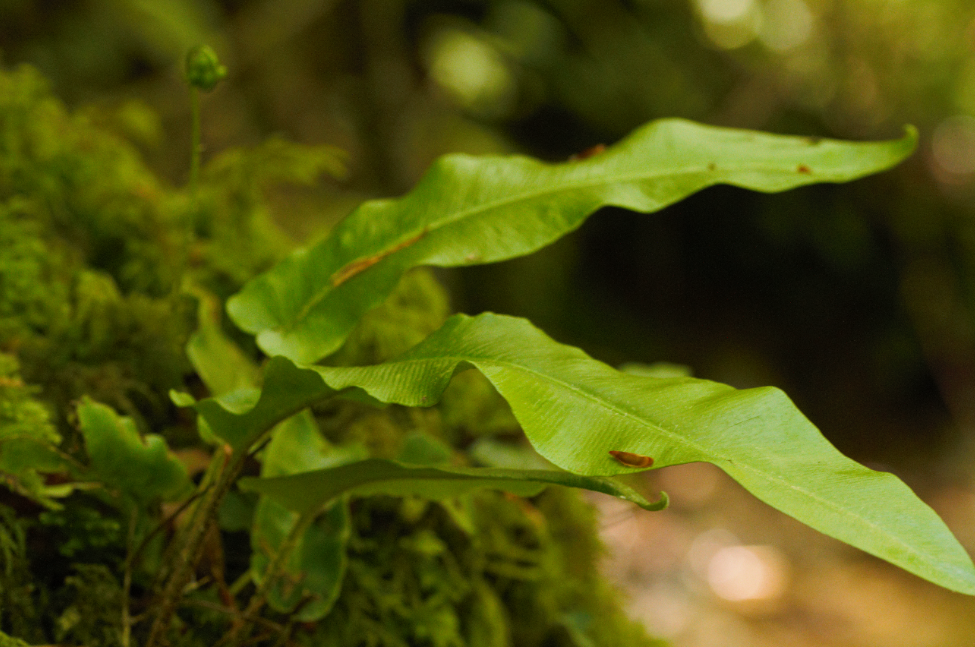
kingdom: Plantae
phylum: Tracheophyta
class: Polypodiopsida
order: Polypodiales
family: Aspleniaceae
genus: Asplenium
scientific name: Asplenium scolopendrium
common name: Hart's-tongue fern
